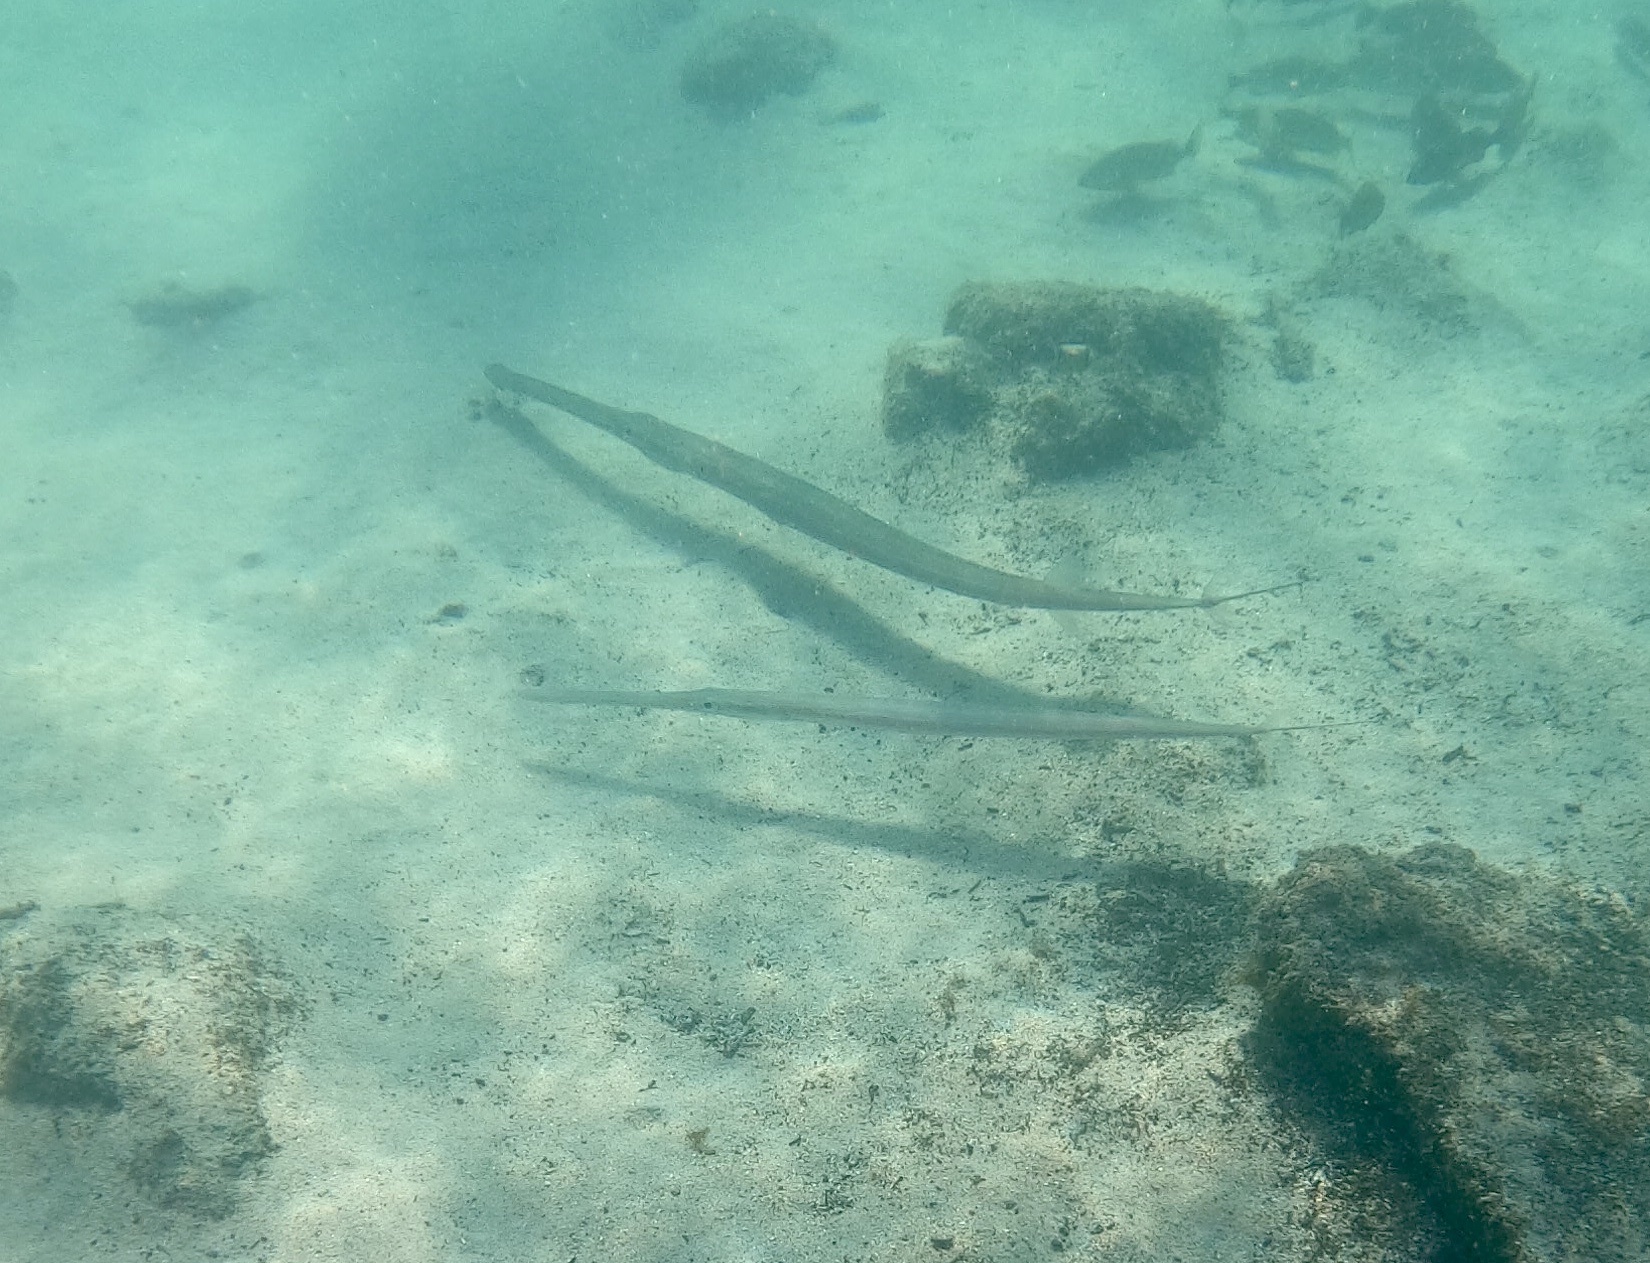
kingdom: Animalia
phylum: Chordata
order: Syngnathiformes
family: Fistulariidae
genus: Fistularia
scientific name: Fistularia commersonii
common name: Bluespotted cornetfish
